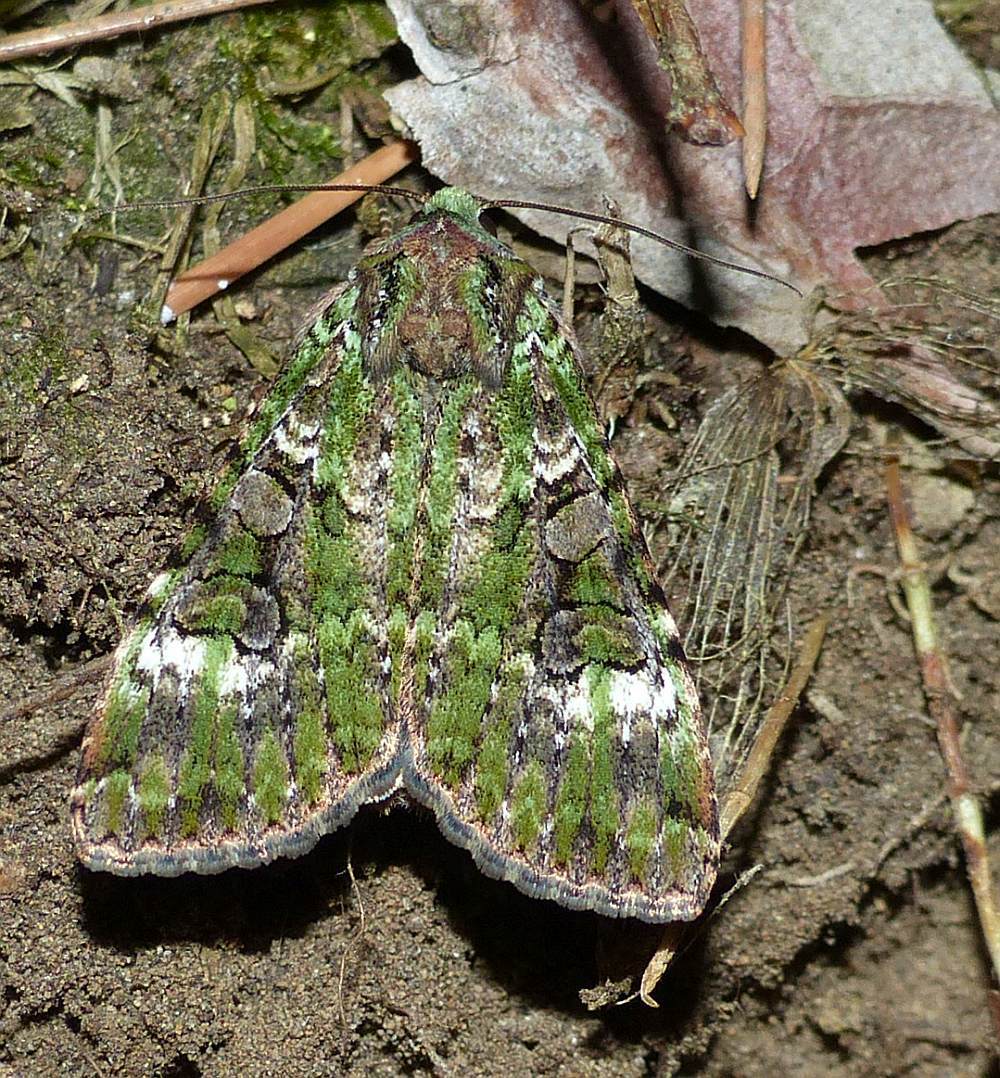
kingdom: Animalia
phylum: Arthropoda
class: Insecta
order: Lepidoptera
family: Noctuidae
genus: Anaplectoides
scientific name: Anaplectoides prasina
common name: Green arches
